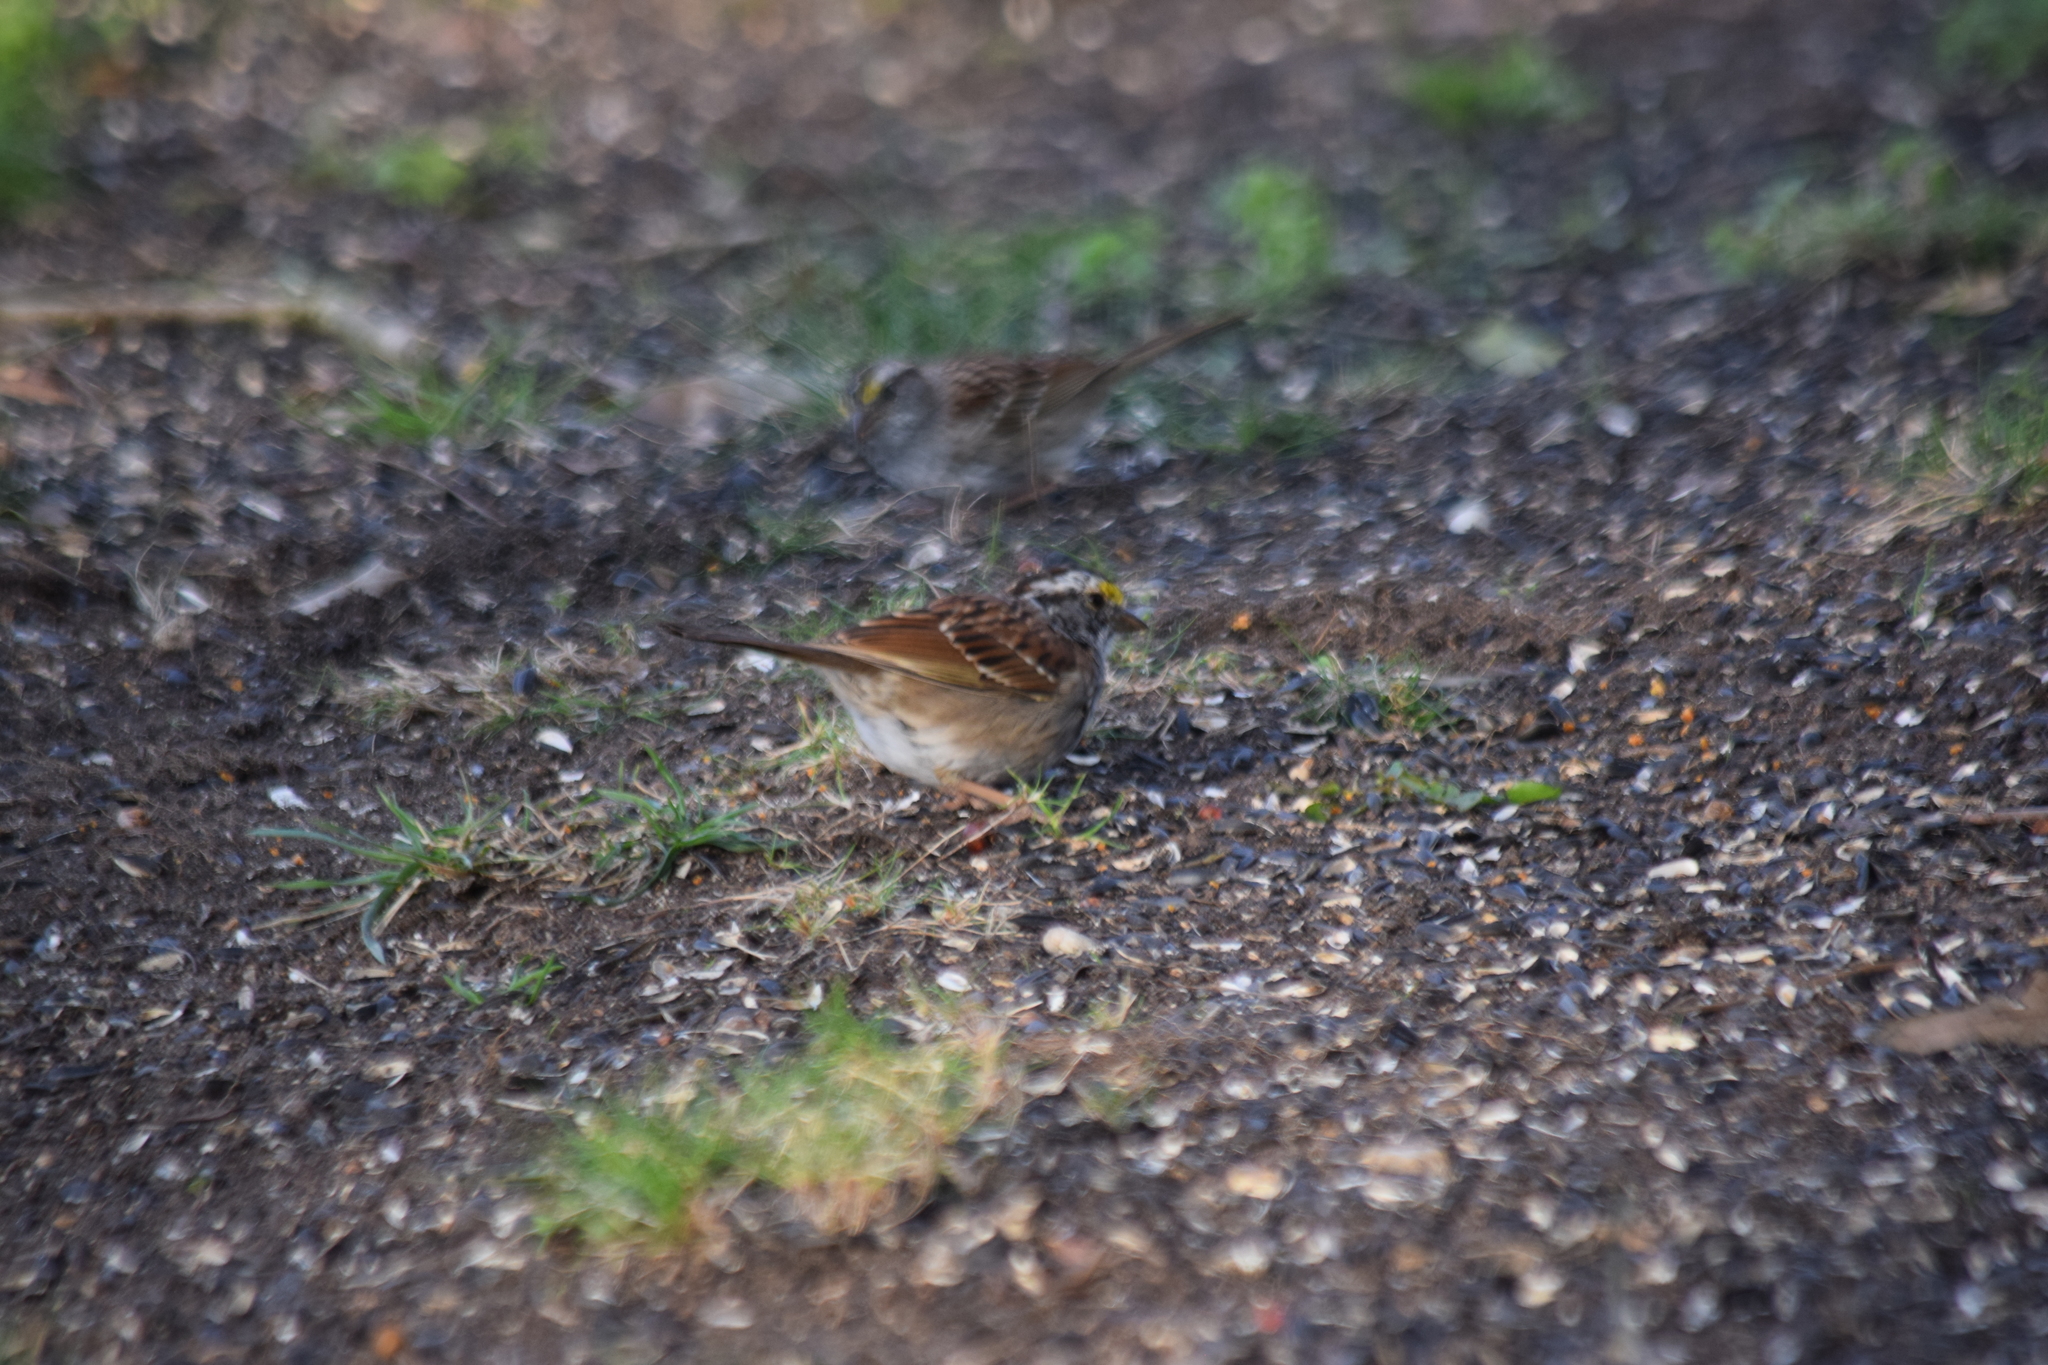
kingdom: Animalia
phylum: Chordata
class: Aves
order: Passeriformes
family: Passerellidae
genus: Zonotrichia
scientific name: Zonotrichia albicollis
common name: White-throated sparrow
